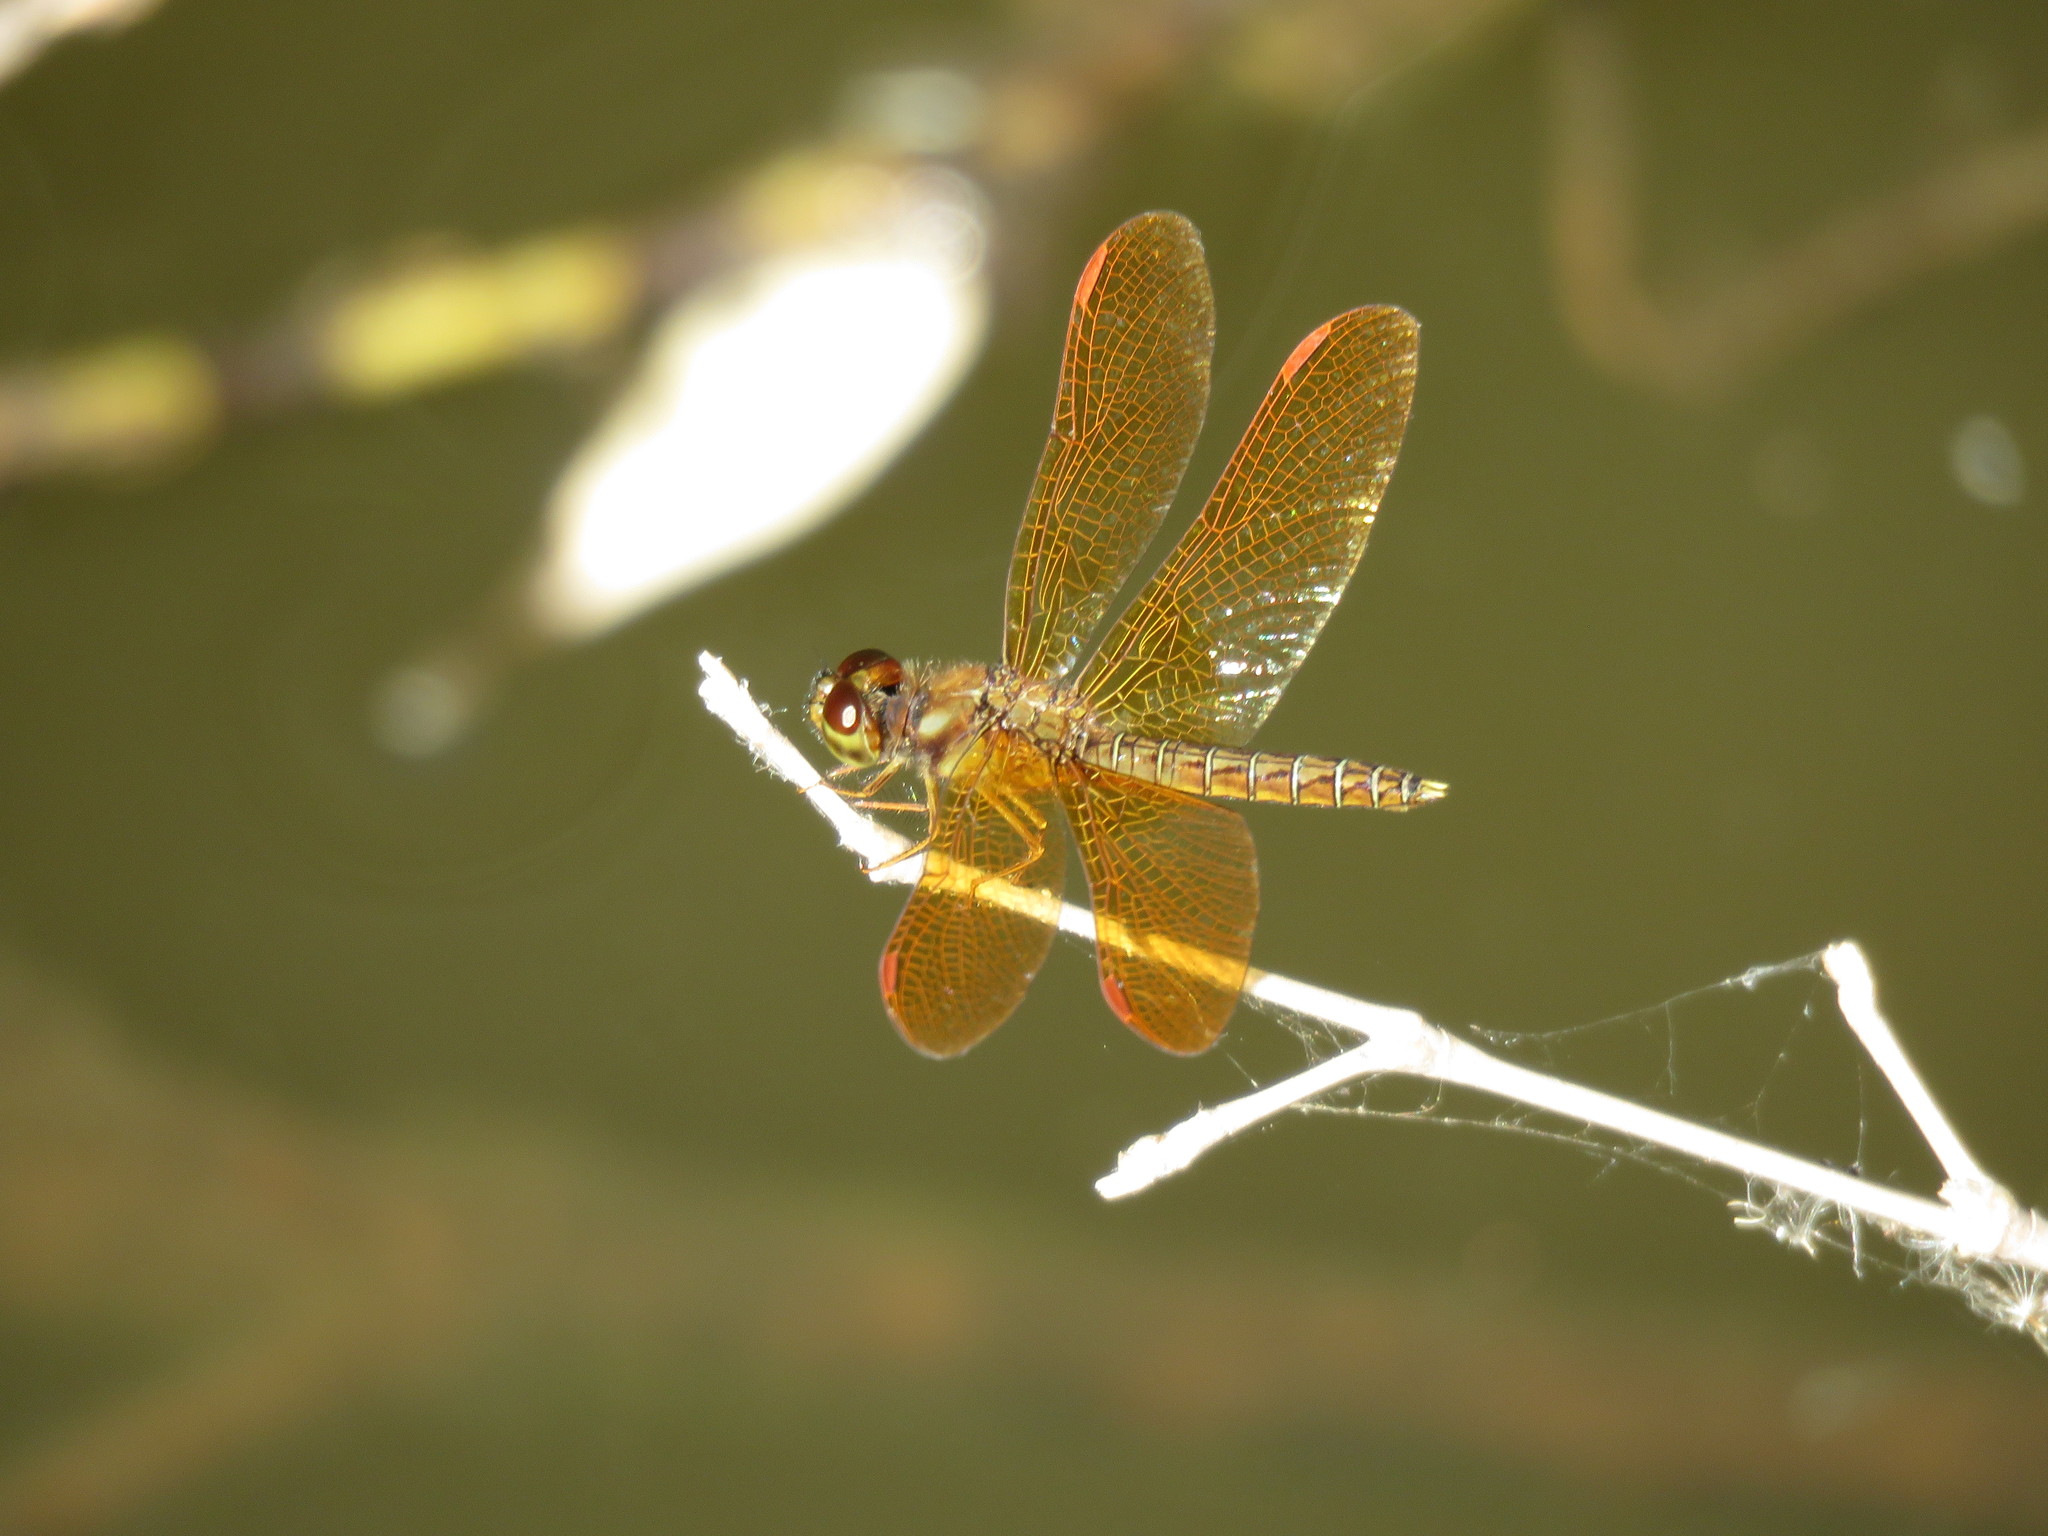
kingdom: Animalia
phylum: Arthropoda
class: Insecta
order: Odonata
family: Libellulidae
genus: Perithemis
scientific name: Perithemis tenera
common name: Eastern amberwing
